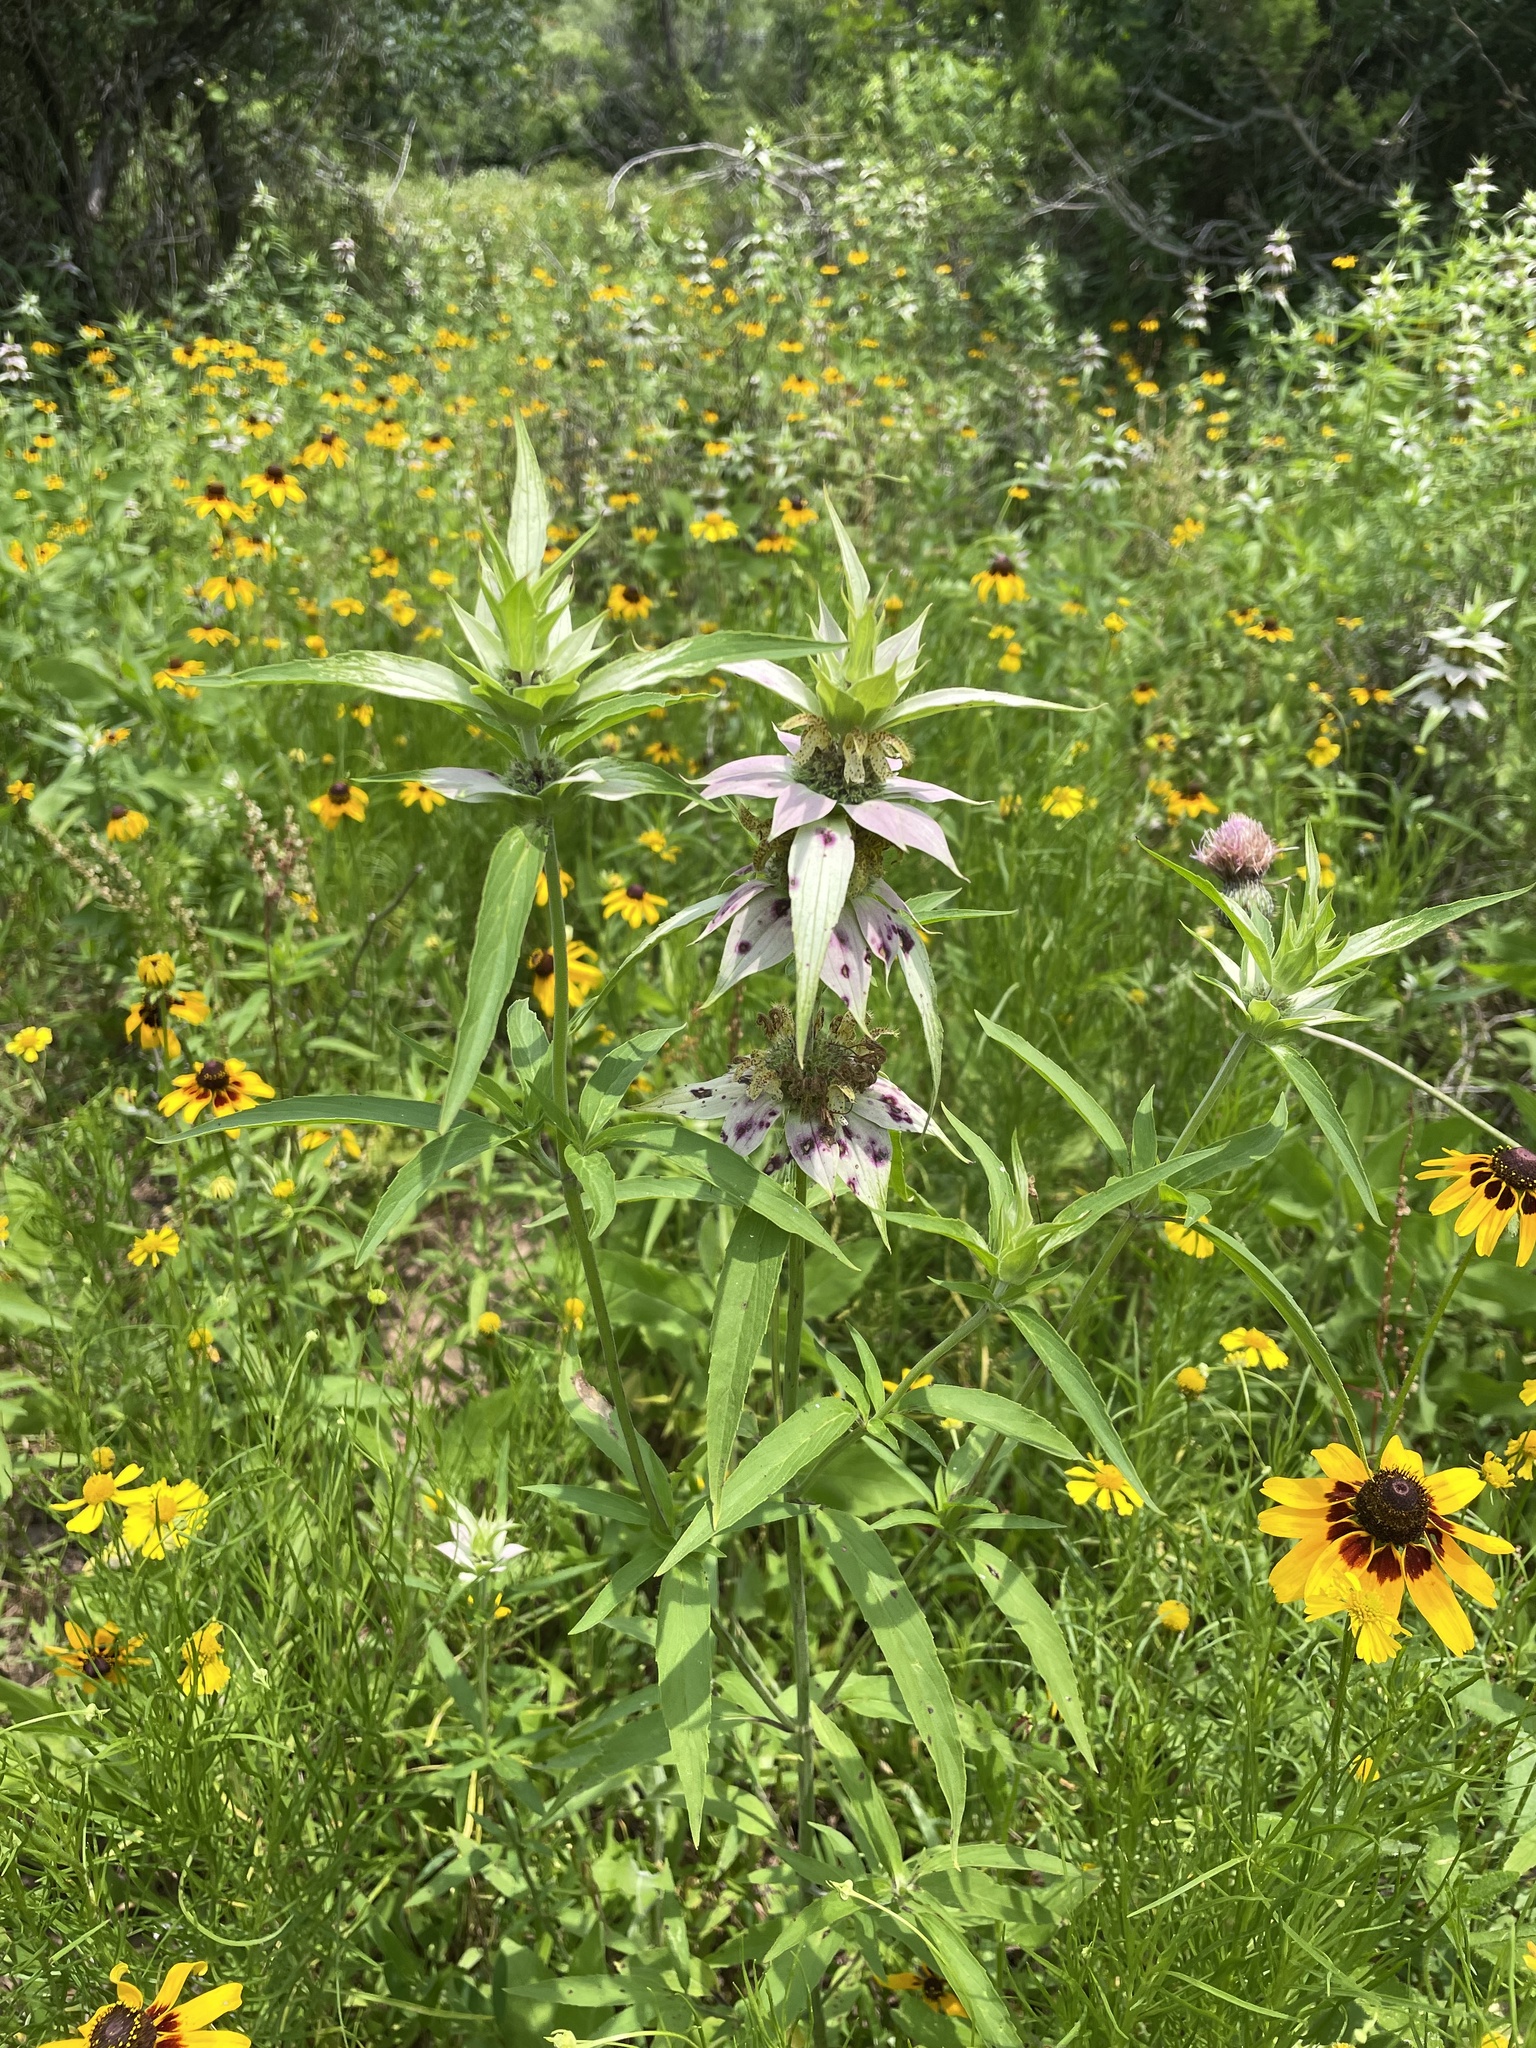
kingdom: Plantae
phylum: Tracheophyta
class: Magnoliopsida
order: Lamiales
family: Lamiaceae
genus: Monarda
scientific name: Monarda punctata
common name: Dotted monarda
